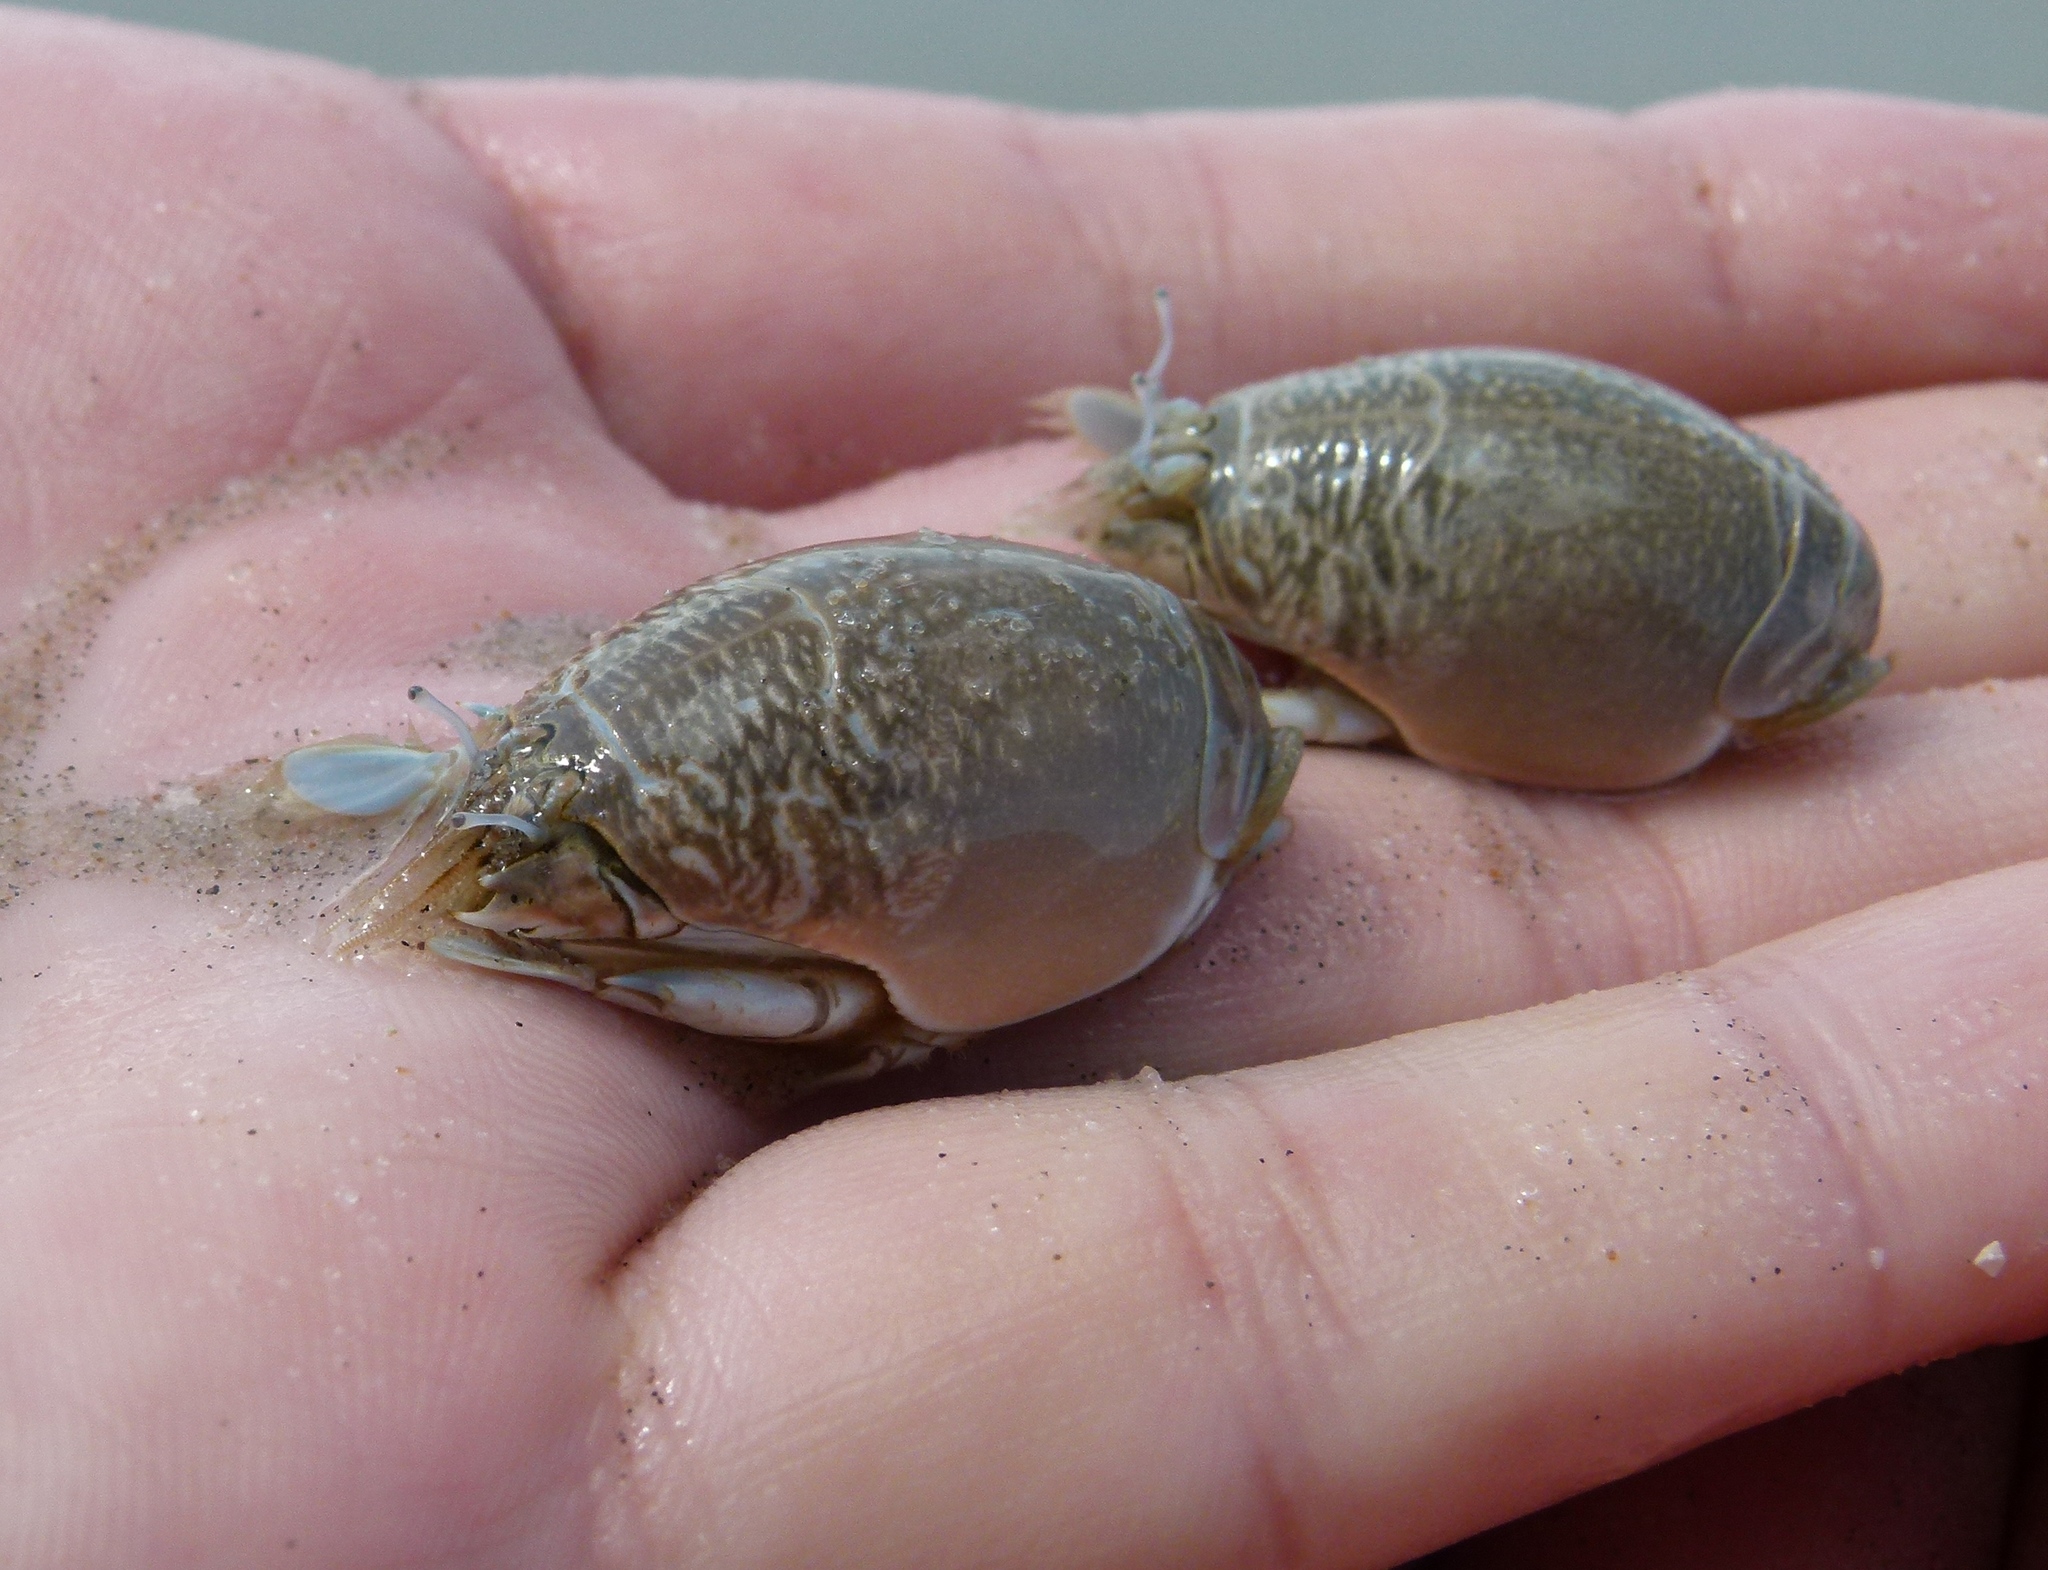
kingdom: Animalia
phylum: Arthropoda
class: Malacostraca
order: Decapoda
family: Hippidae
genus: Emerita
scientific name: Emerita talpoida
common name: Atlantic sand crab
